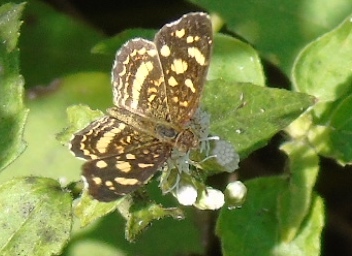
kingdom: Animalia
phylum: Arthropoda
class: Insecta
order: Lepidoptera
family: Nymphalidae
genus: Anthanassa
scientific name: Anthanassa tulcis
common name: Pale-banded crescent
